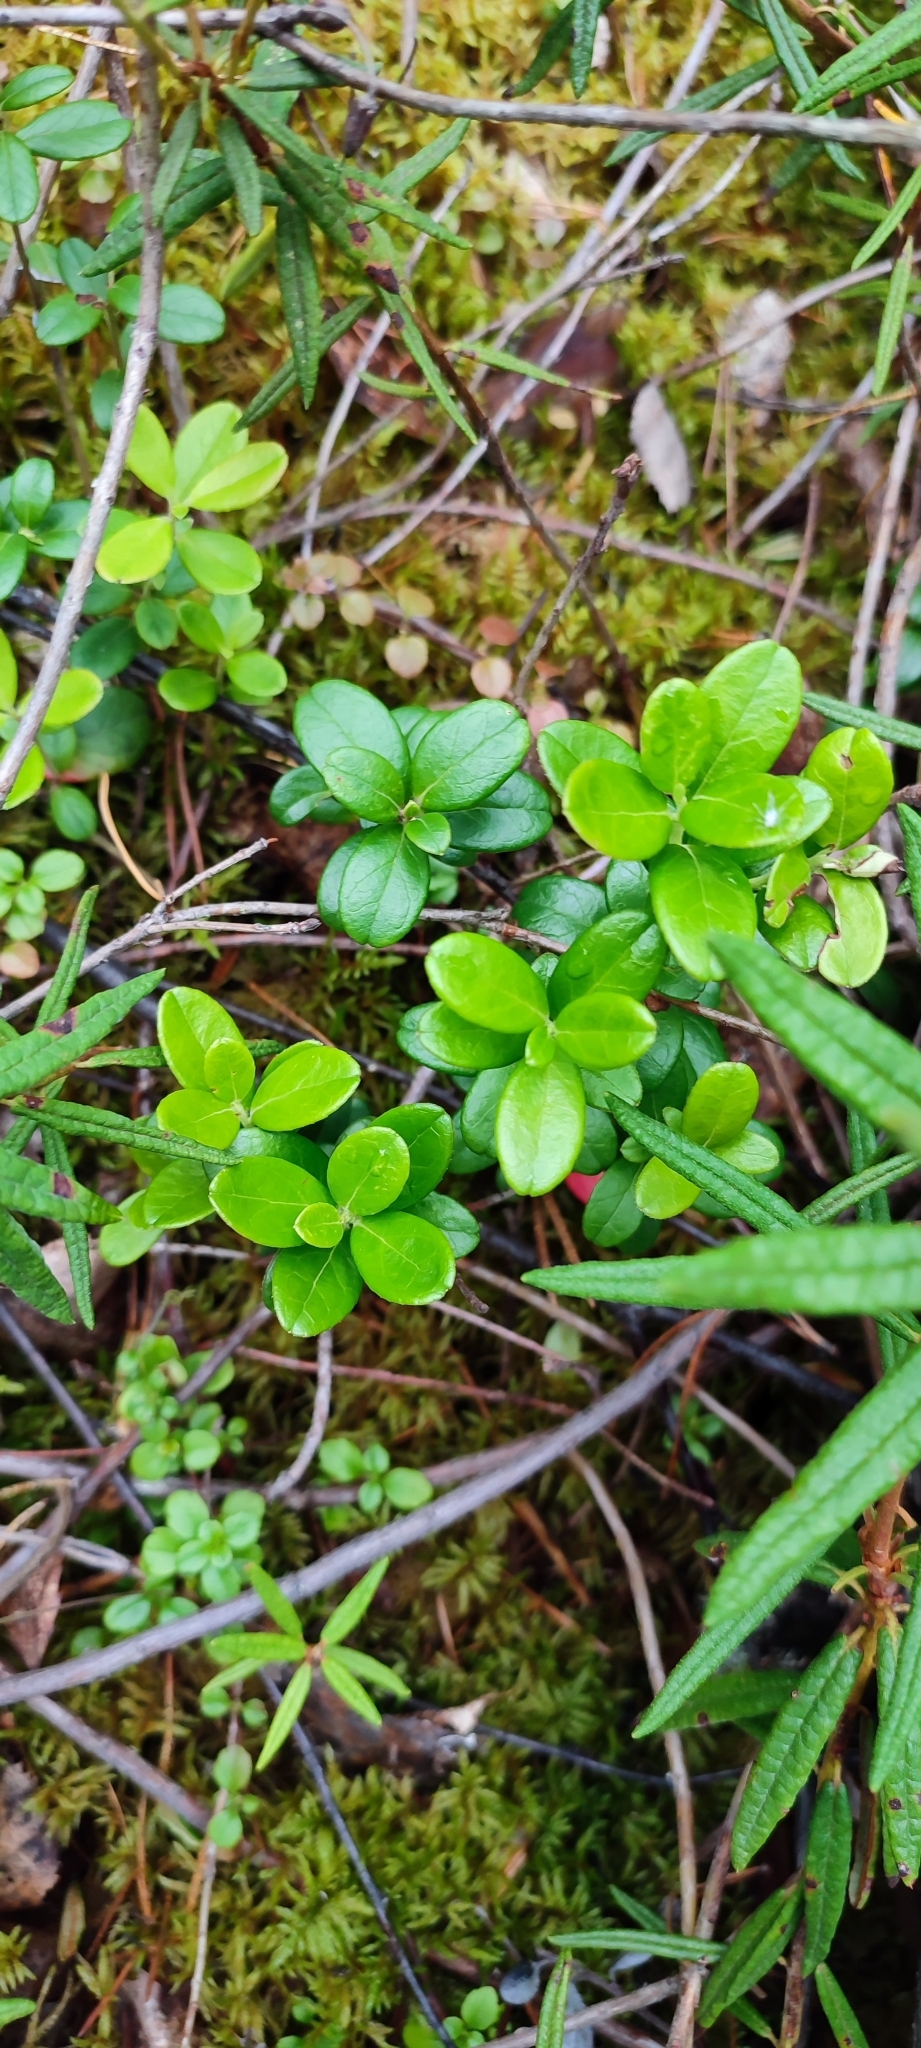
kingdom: Plantae
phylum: Tracheophyta
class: Magnoliopsida
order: Ericales
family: Ericaceae
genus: Vaccinium
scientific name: Vaccinium vitis-idaea
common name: Cowberry
